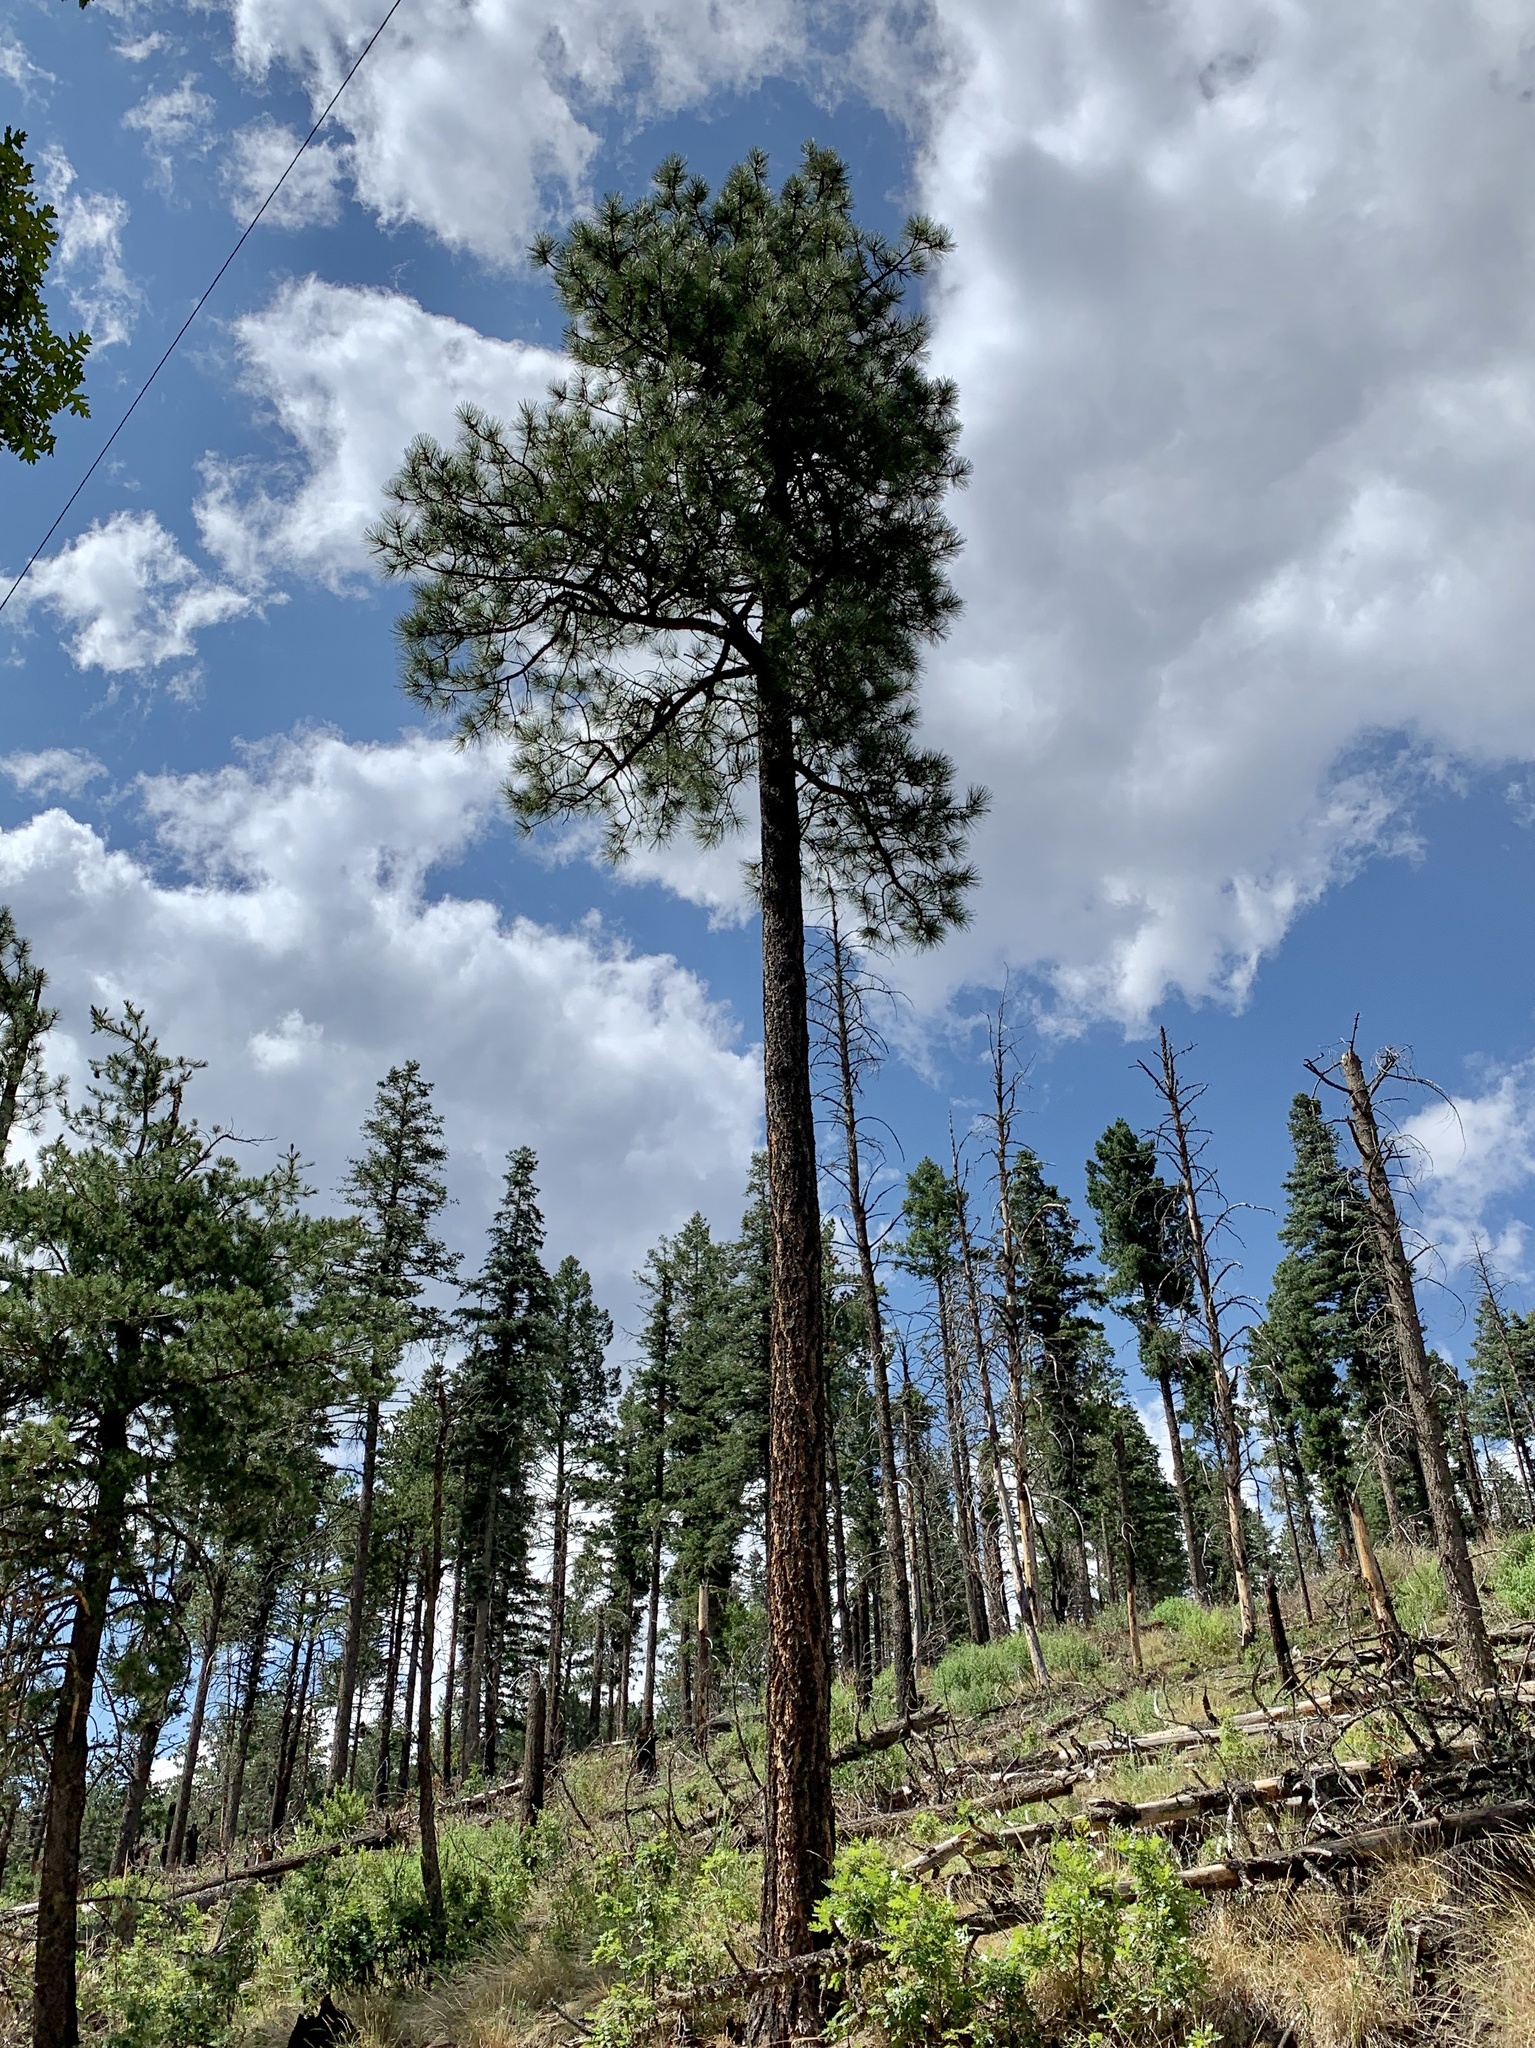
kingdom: Plantae
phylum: Tracheophyta
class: Pinopsida
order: Pinales
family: Pinaceae
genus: Pinus
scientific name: Pinus ponderosa
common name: Western yellow-pine
